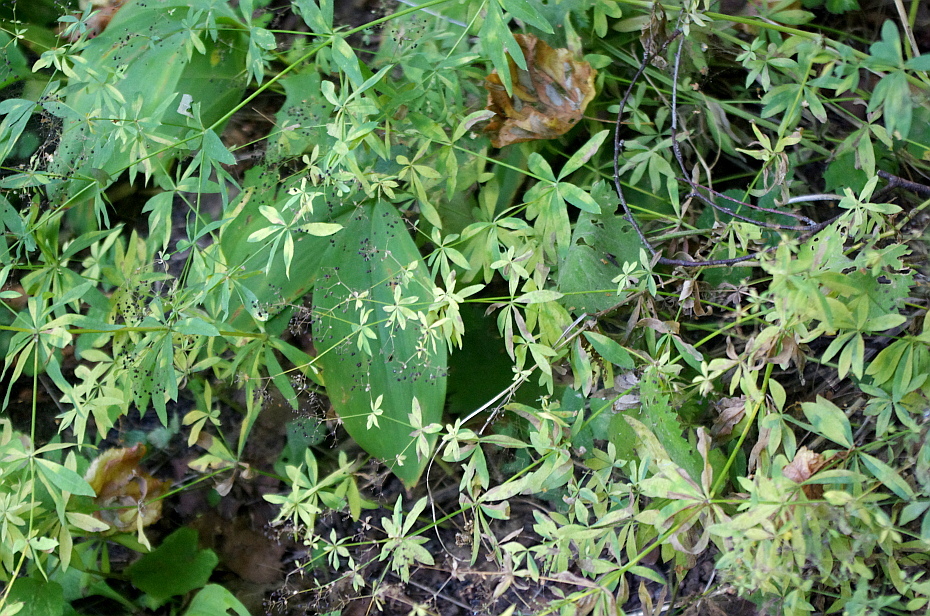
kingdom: Plantae
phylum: Tracheophyta
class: Magnoliopsida
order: Gentianales
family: Rubiaceae
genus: Galium
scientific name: Galium intermedium
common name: Bedstraw
